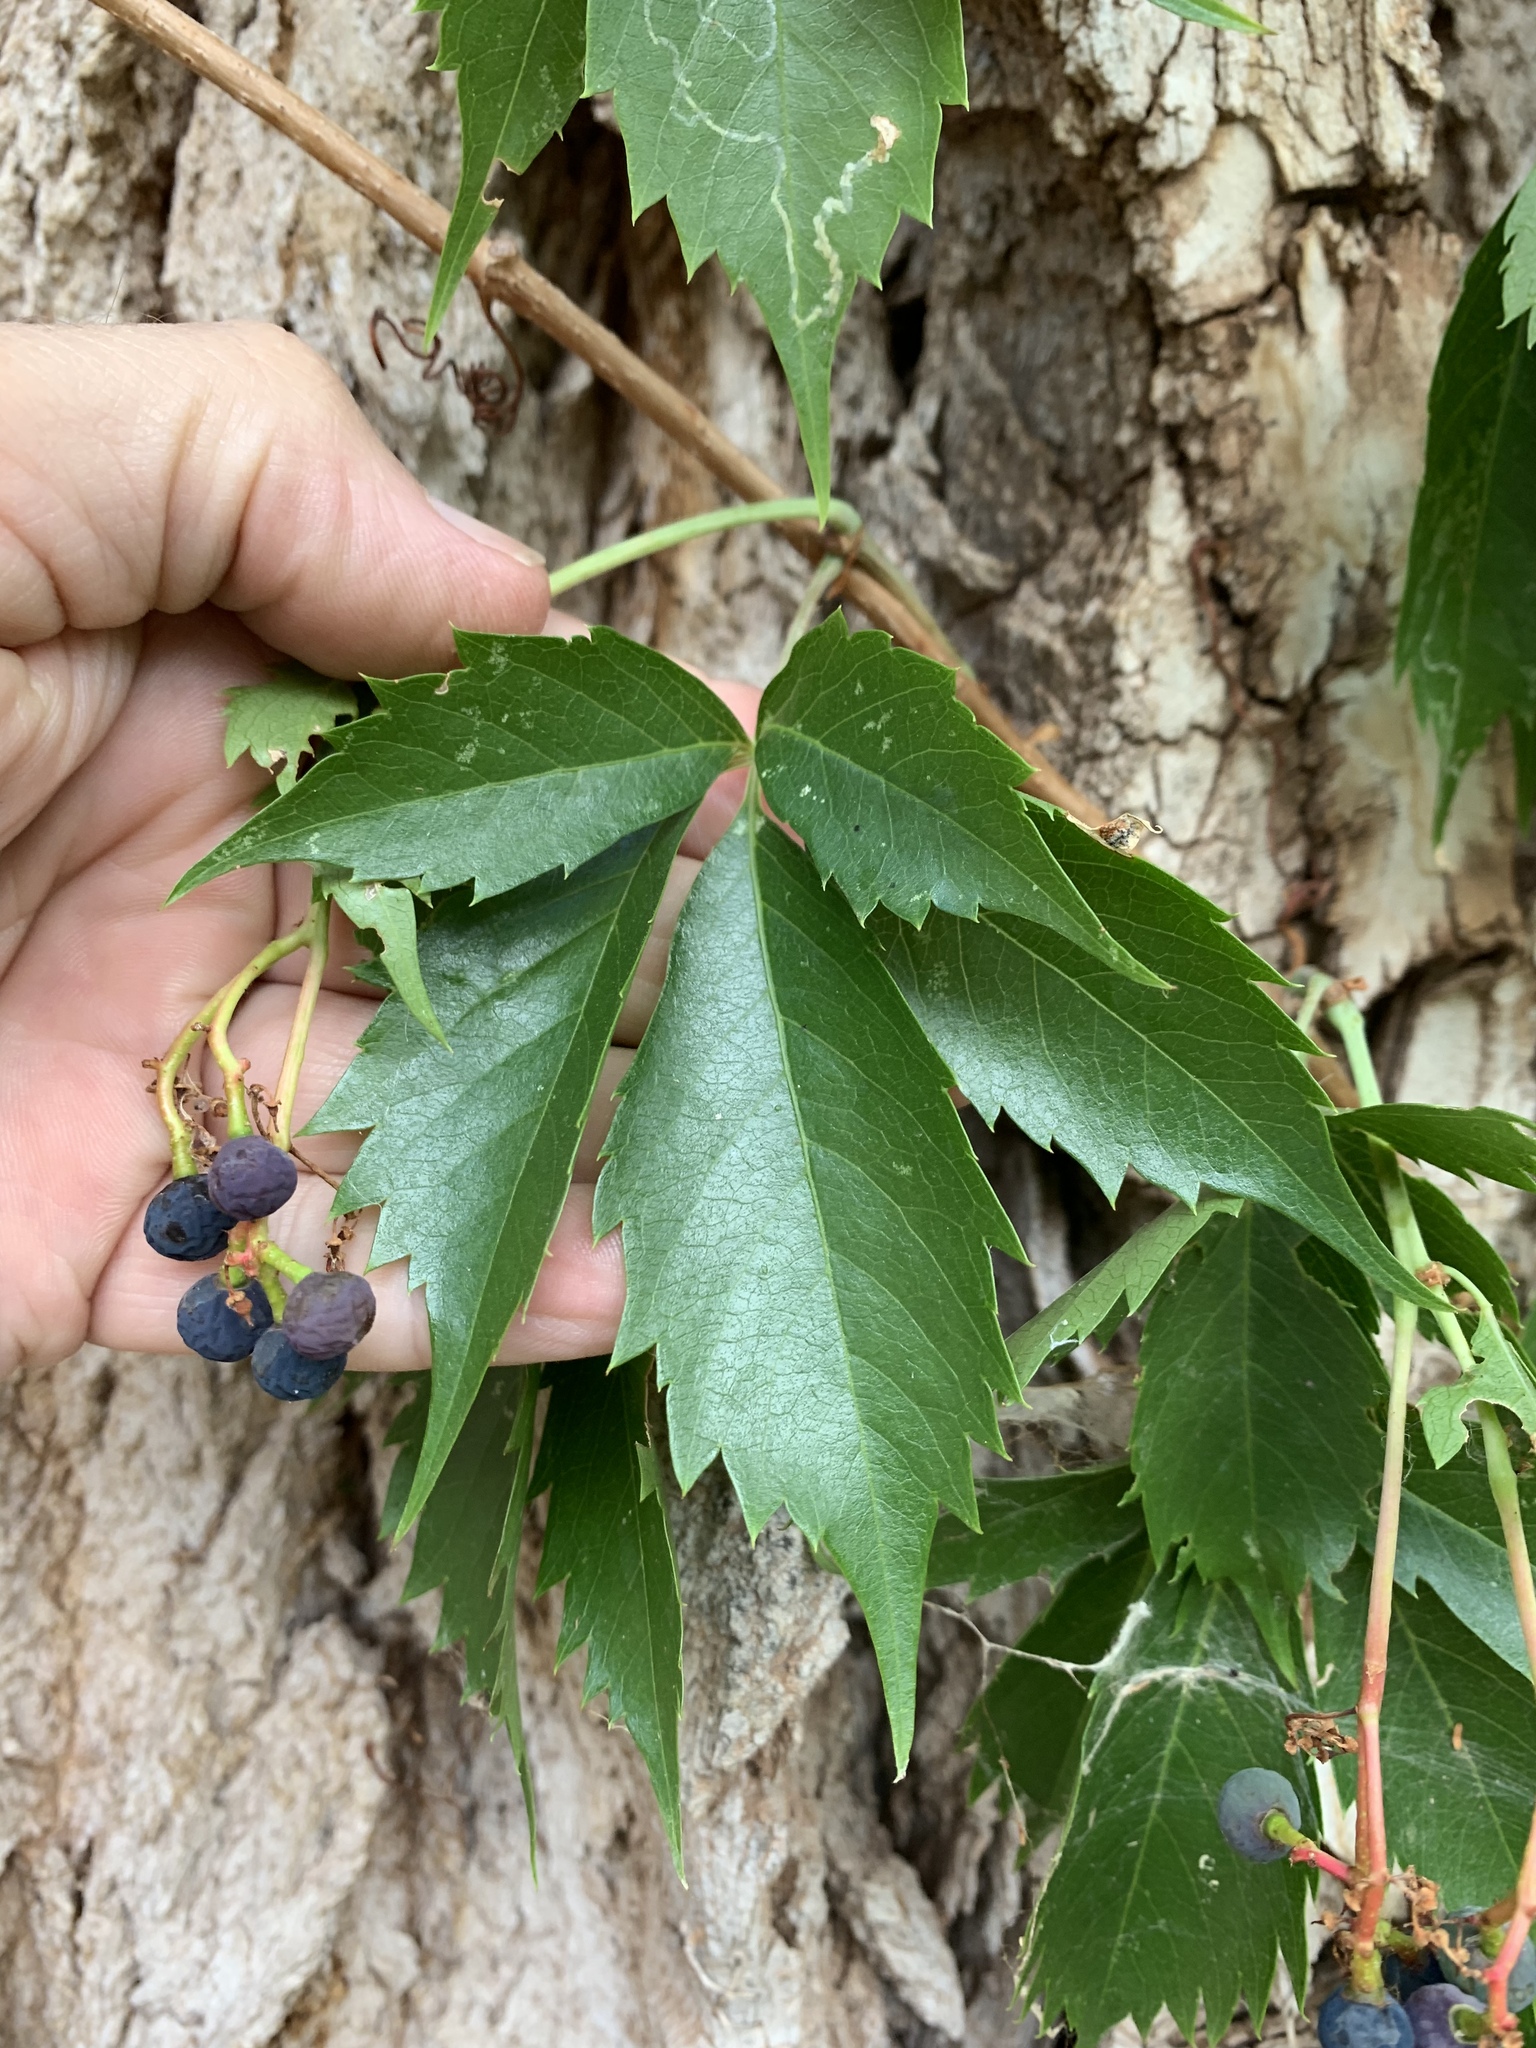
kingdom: Plantae
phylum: Tracheophyta
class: Magnoliopsida
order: Vitales
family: Vitaceae
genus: Parthenocissus
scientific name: Parthenocissus quinquefolia
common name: Virginia-creeper
